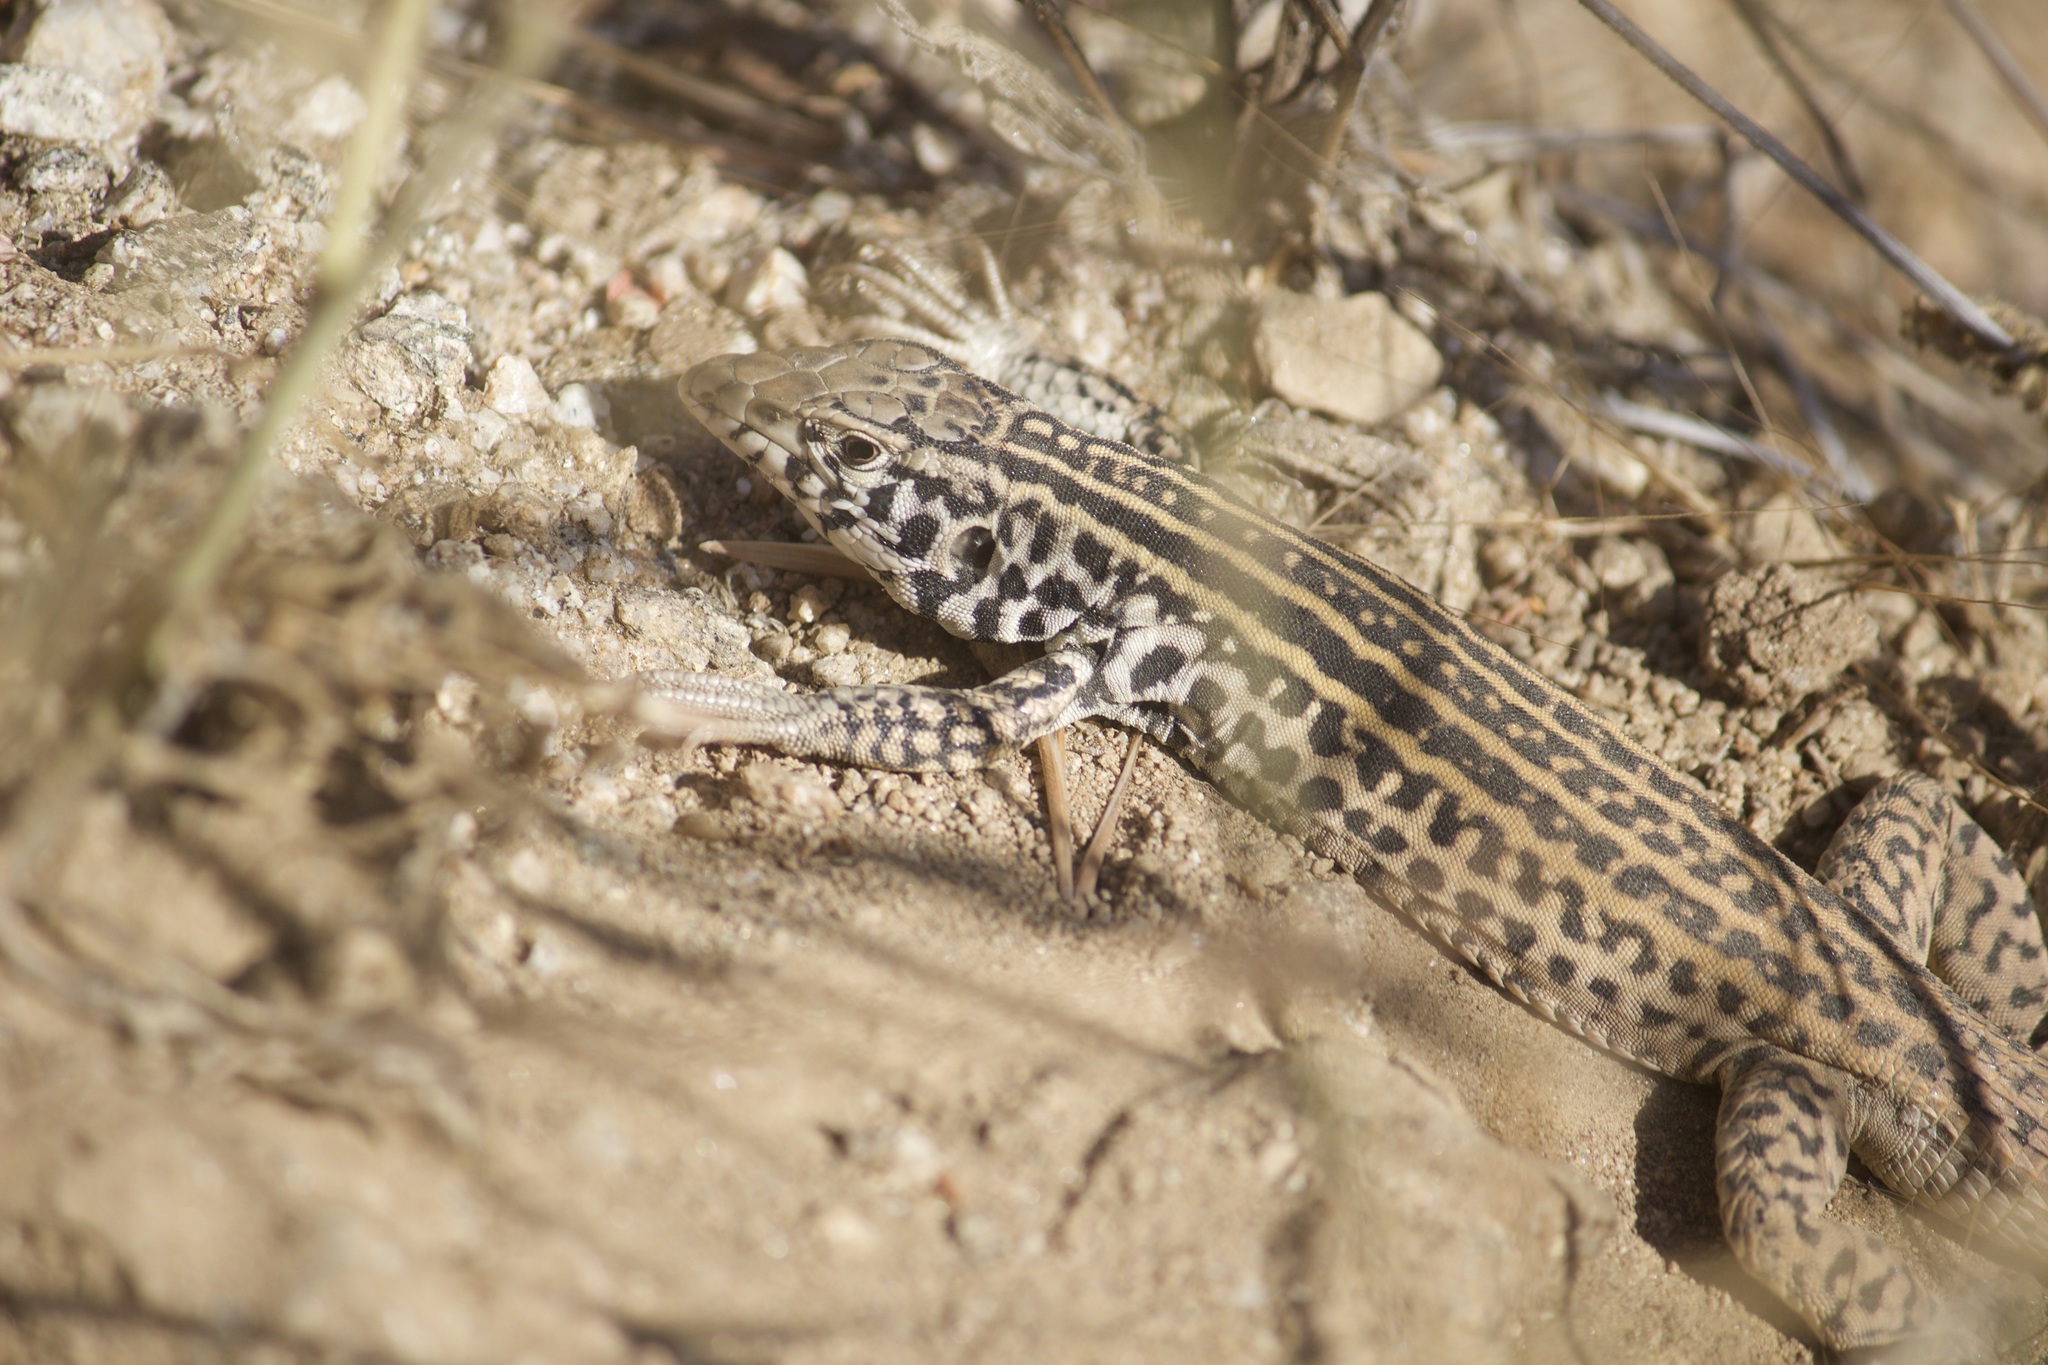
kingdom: Animalia
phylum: Chordata
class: Squamata
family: Teiidae
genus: Aspidoscelis
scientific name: Aspidoscelis tigris
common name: Tiger whiptail
